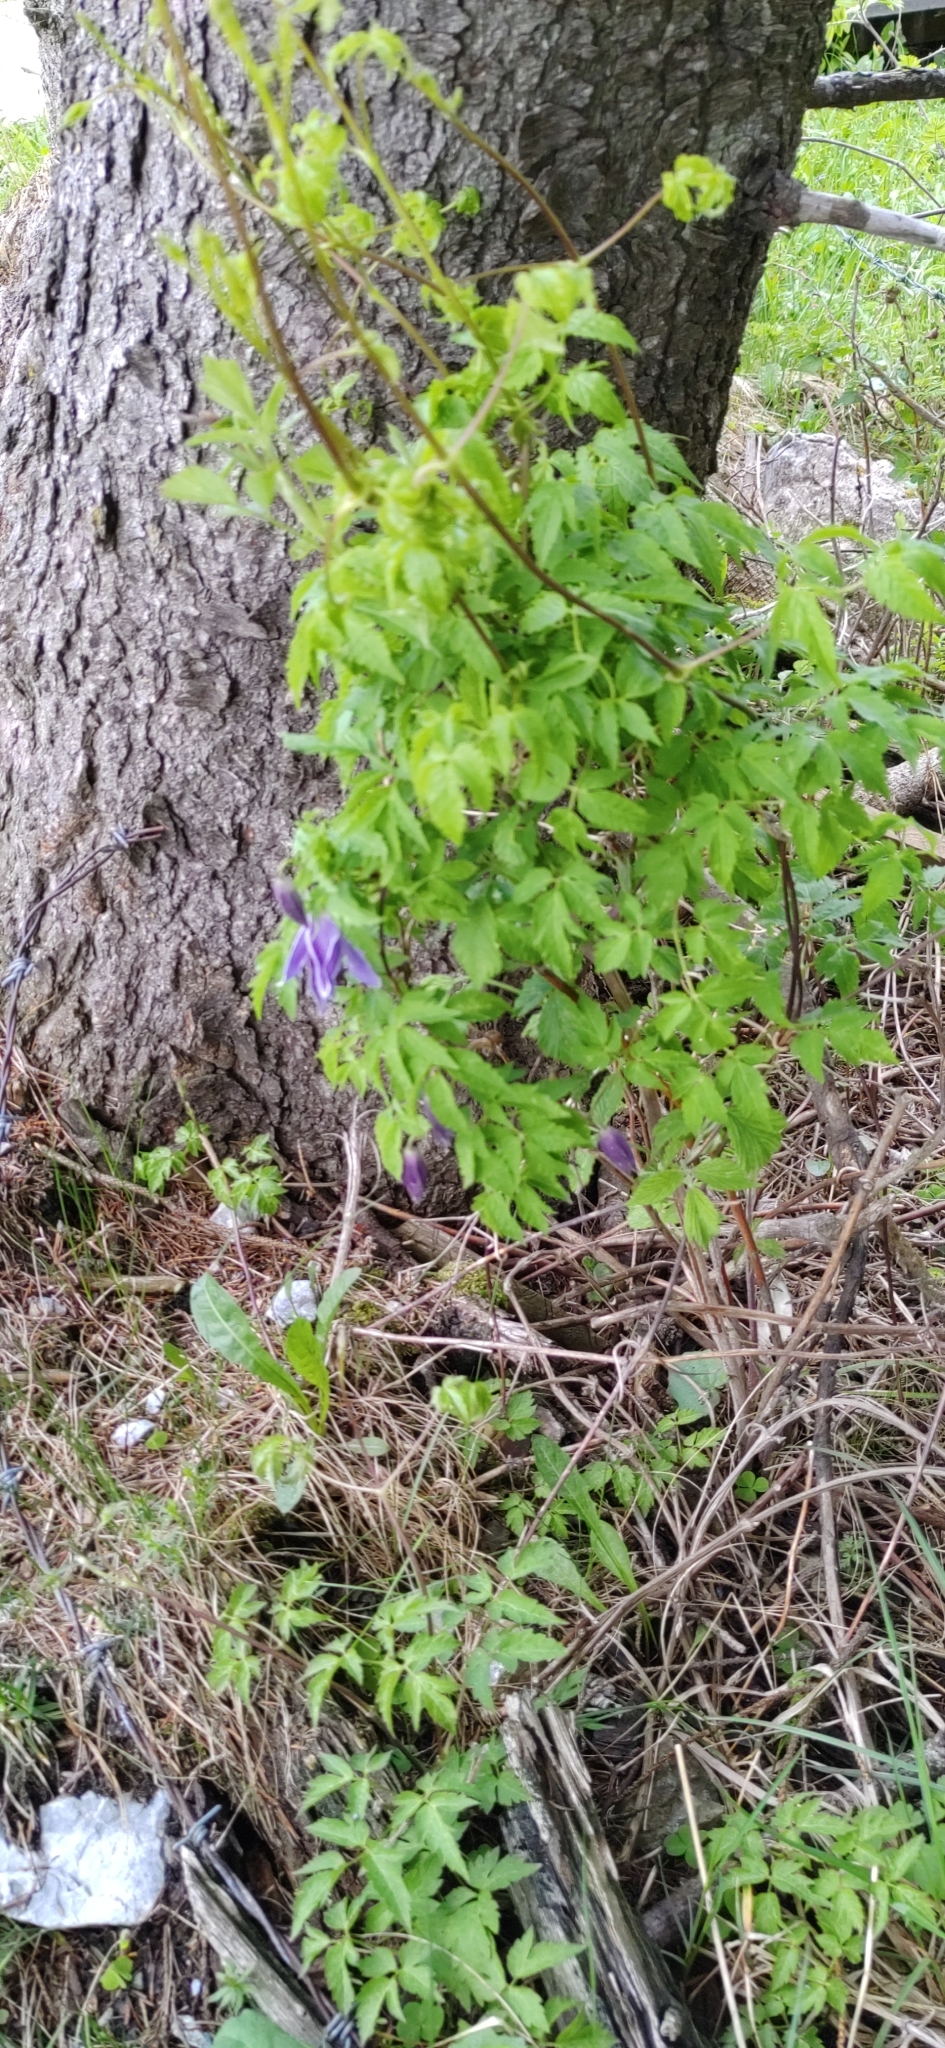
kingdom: Plantae
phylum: Tracheophyta
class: Magnoliopsida
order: Ranunculales
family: Ranunculaceae
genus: Clematis
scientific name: Clematis alpina
